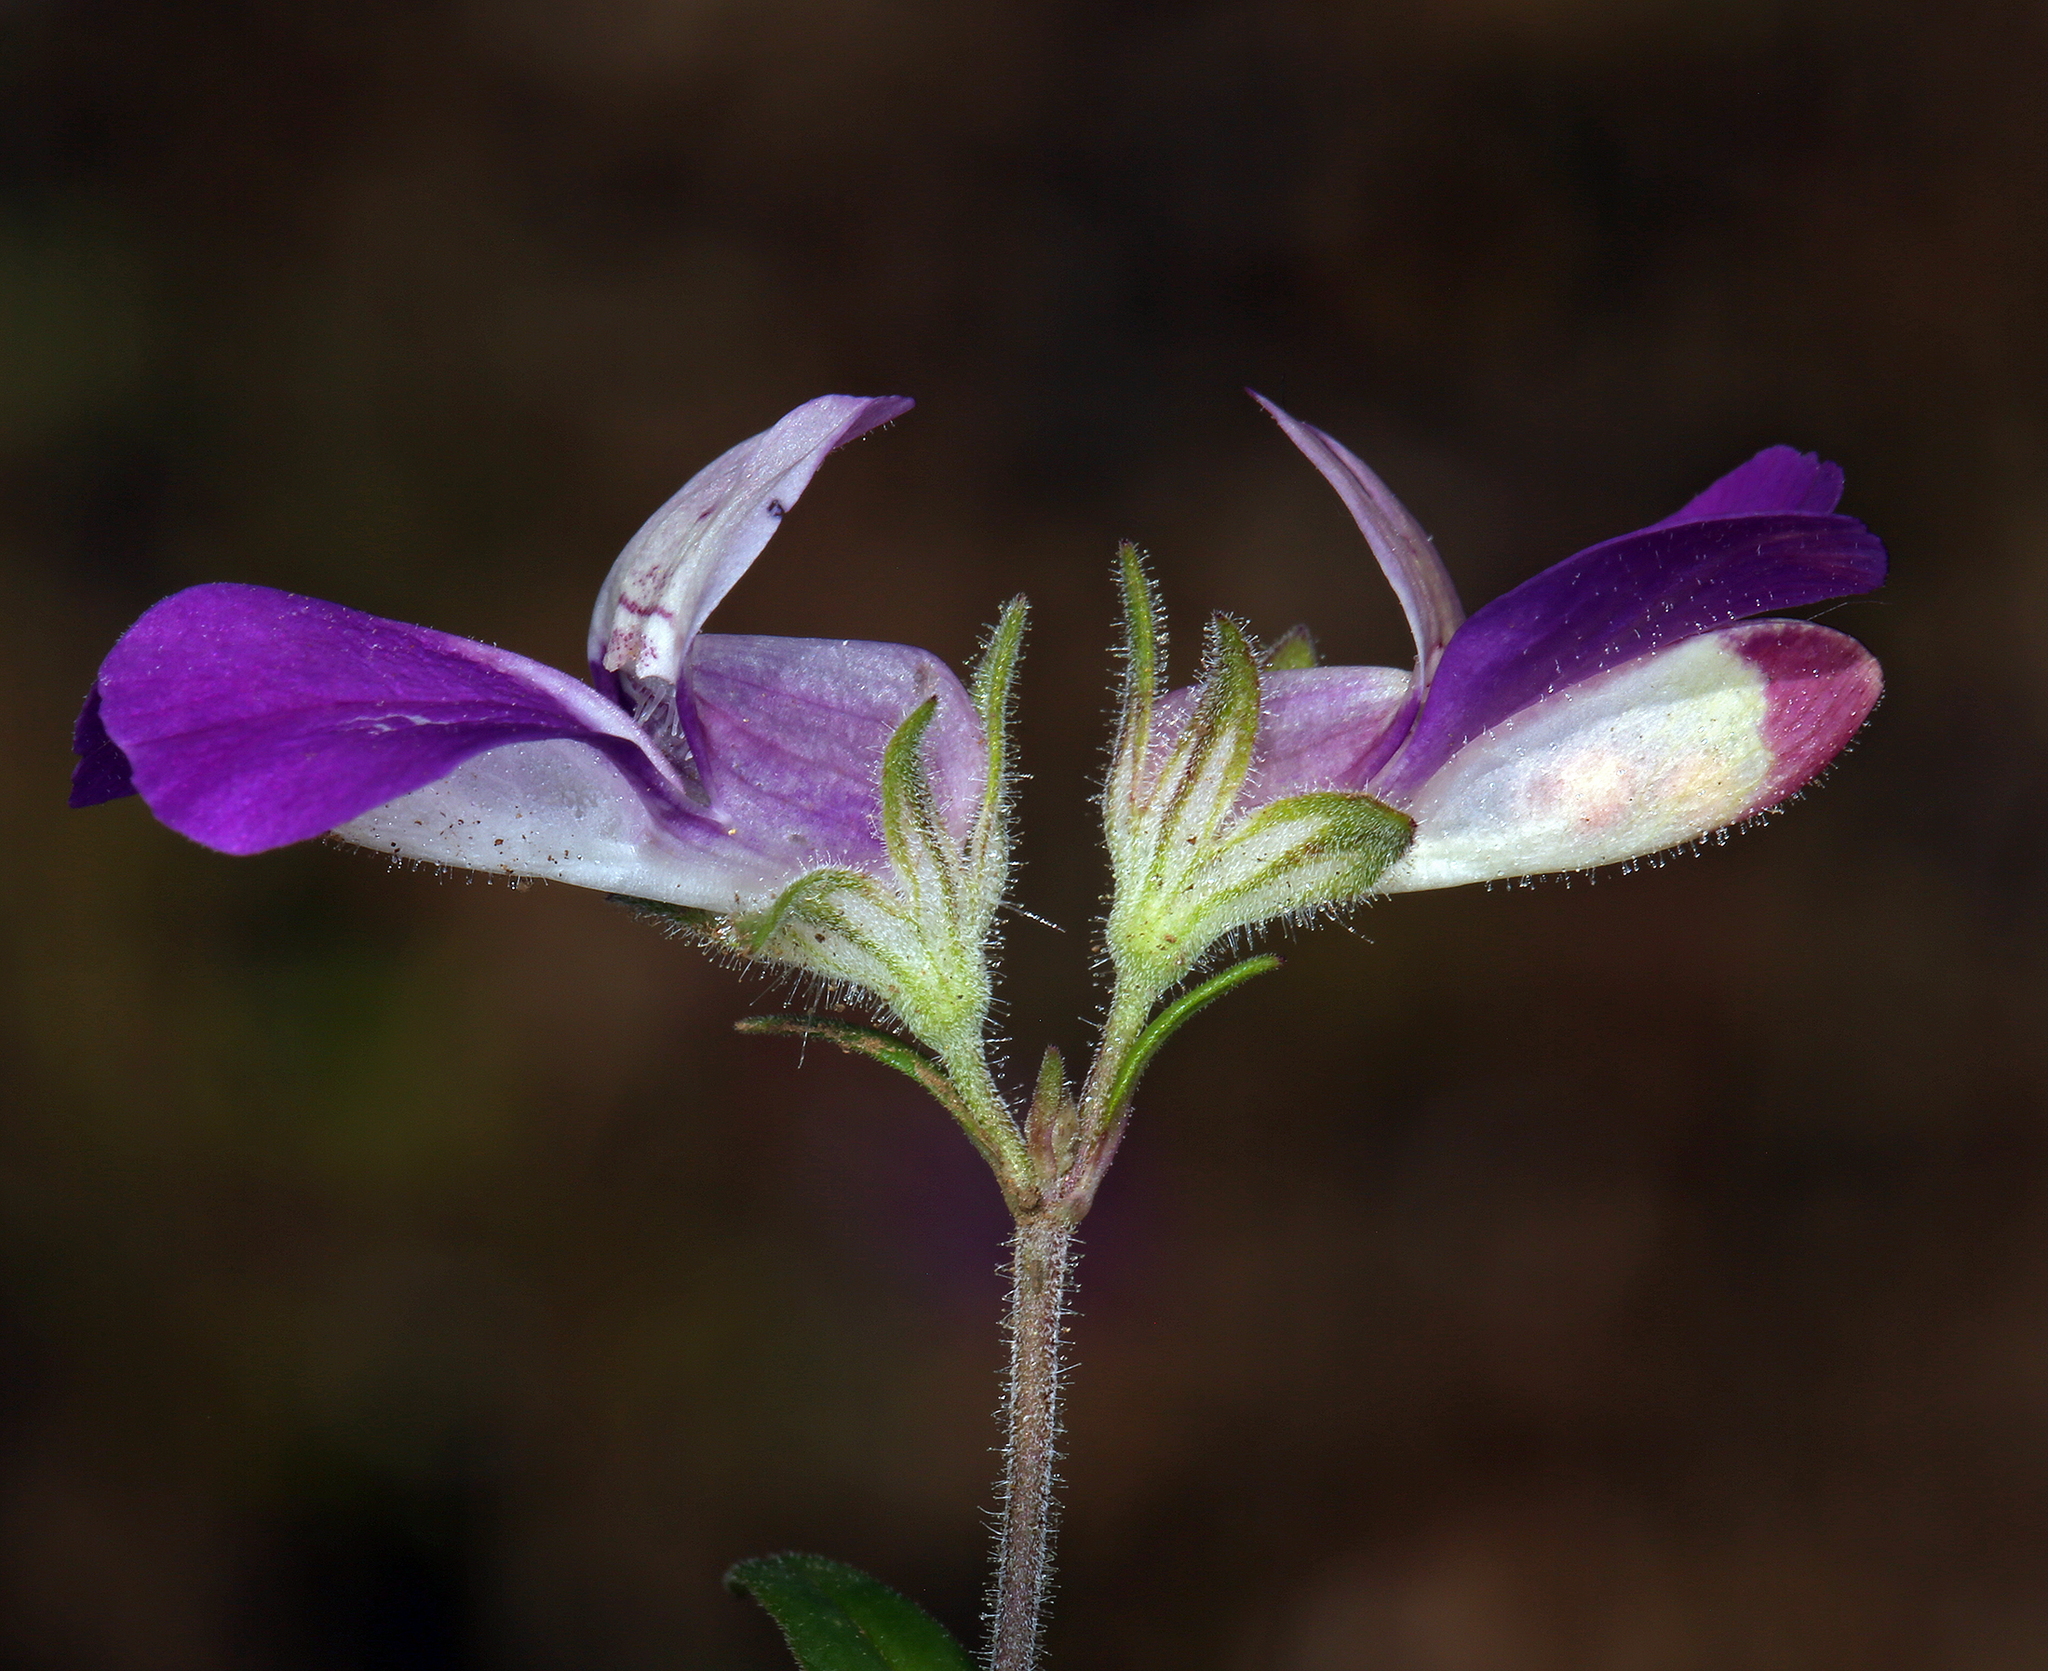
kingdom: Plantae
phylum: Tracheophyta
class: Magnoliopsida
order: Lamiales
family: Plantaginaceae
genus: Collinsia
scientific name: Collinsia heterophylla
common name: Chinese-houses
